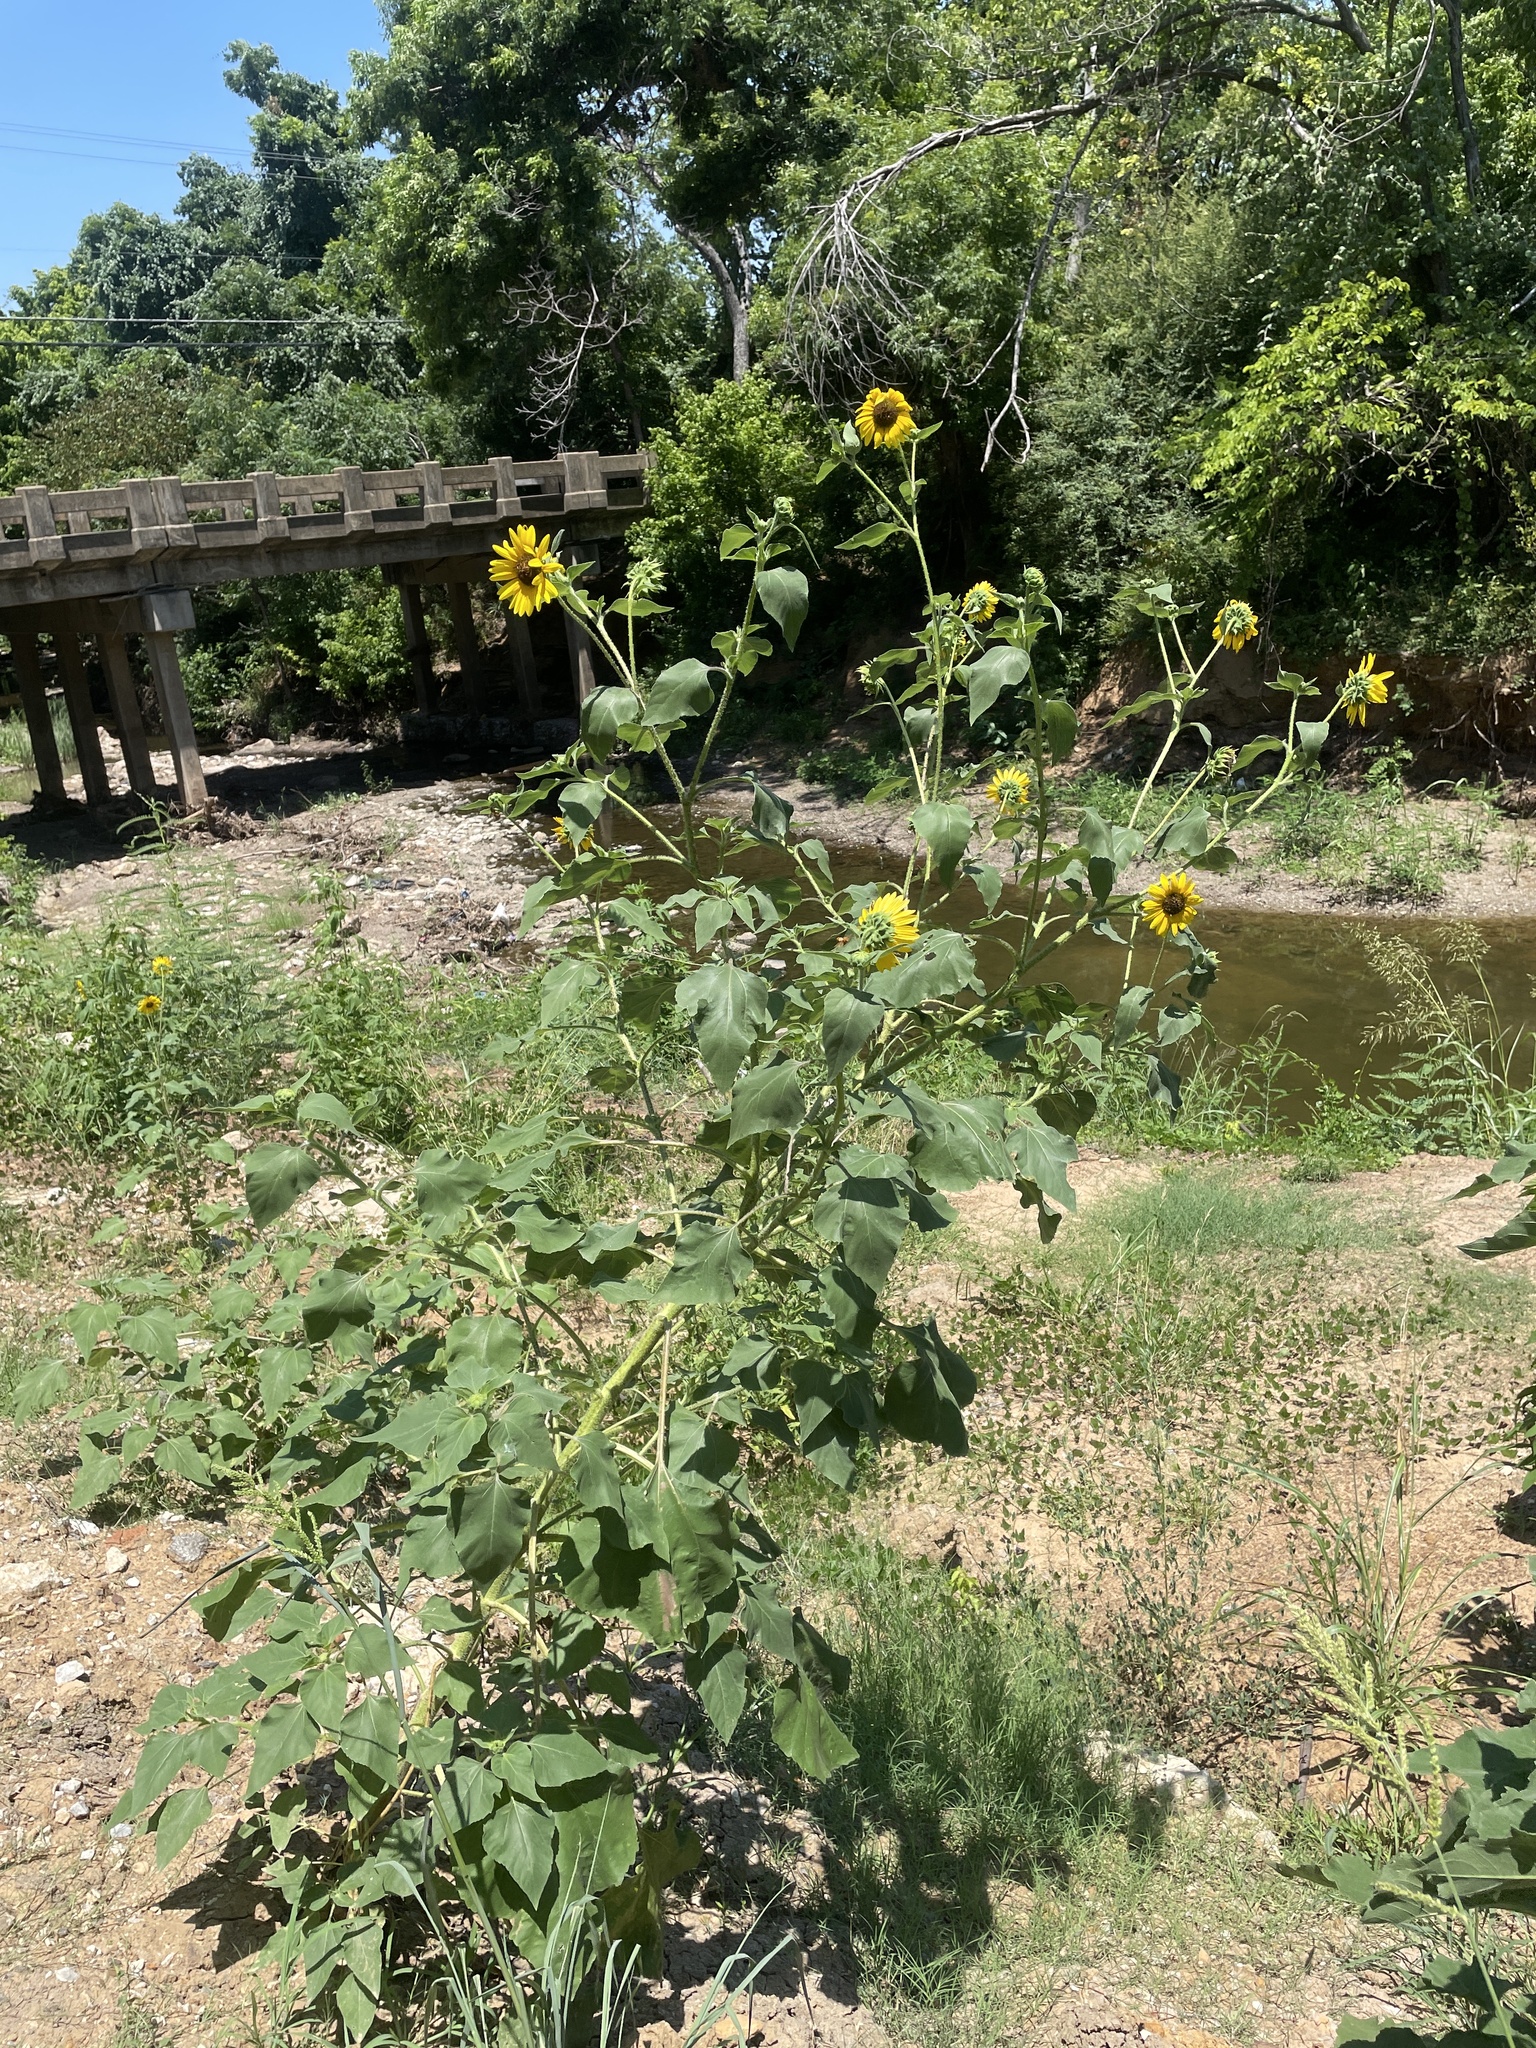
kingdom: Plantae
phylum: Tracheophyta
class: Magnoliopsida
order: Asterales
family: Asteraceae
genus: Helianthus
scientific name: Helianthus annuus
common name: Sunflower
